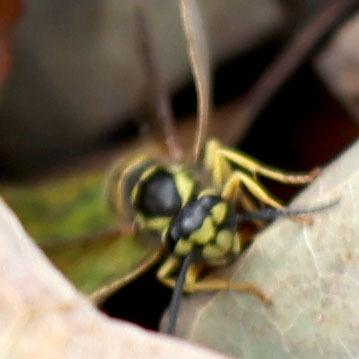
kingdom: Animalia
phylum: Arthropoda
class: Insecta
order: Hymenoptera
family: Vespidae
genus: Vespula
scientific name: Vespula maculifrons
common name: Eastern yellowjacket
